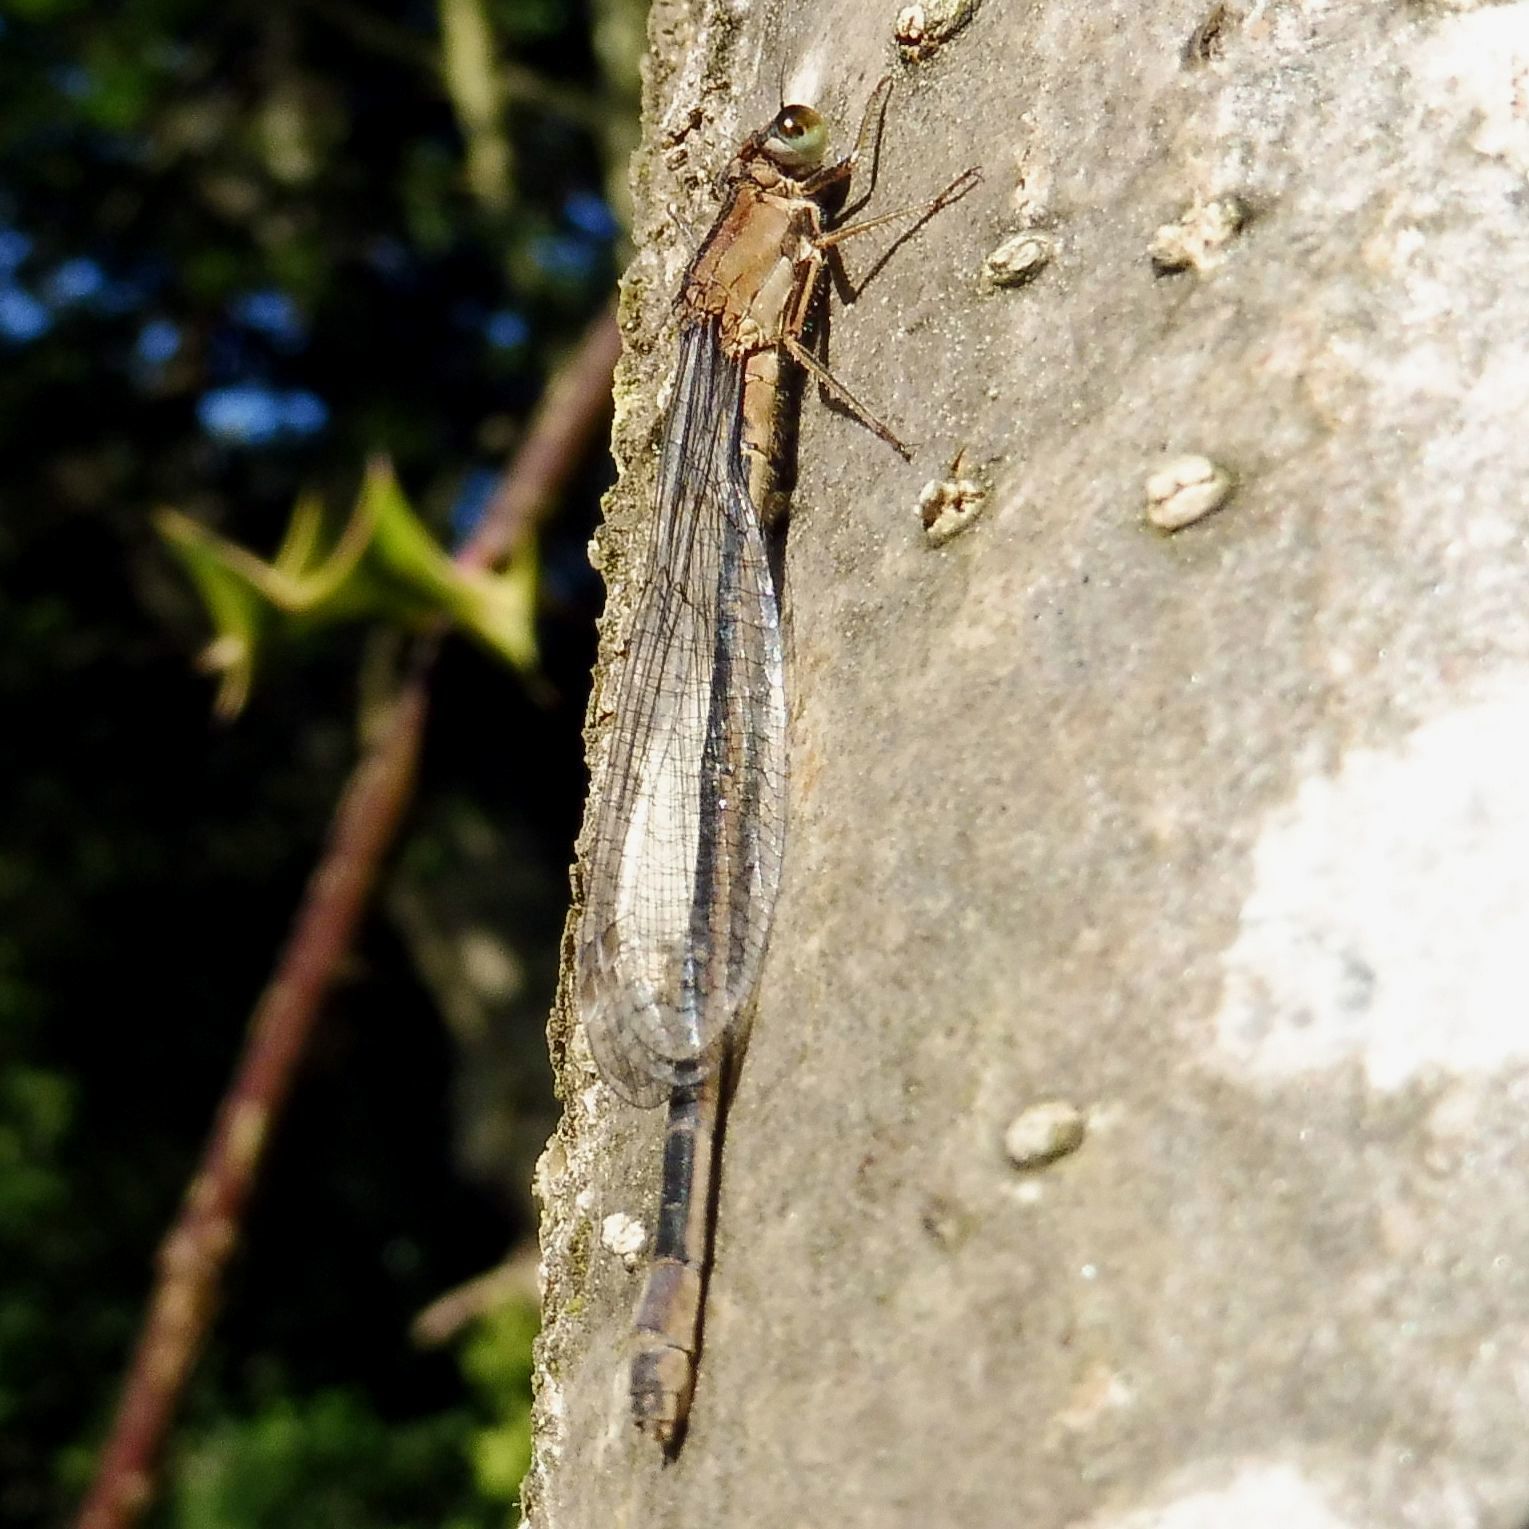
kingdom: Animalia
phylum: Arthropoda
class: Insecta
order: Odonata
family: Coenagrionidae
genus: Ischnura
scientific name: Ischnura elegans
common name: Blue-tailed damselfly
